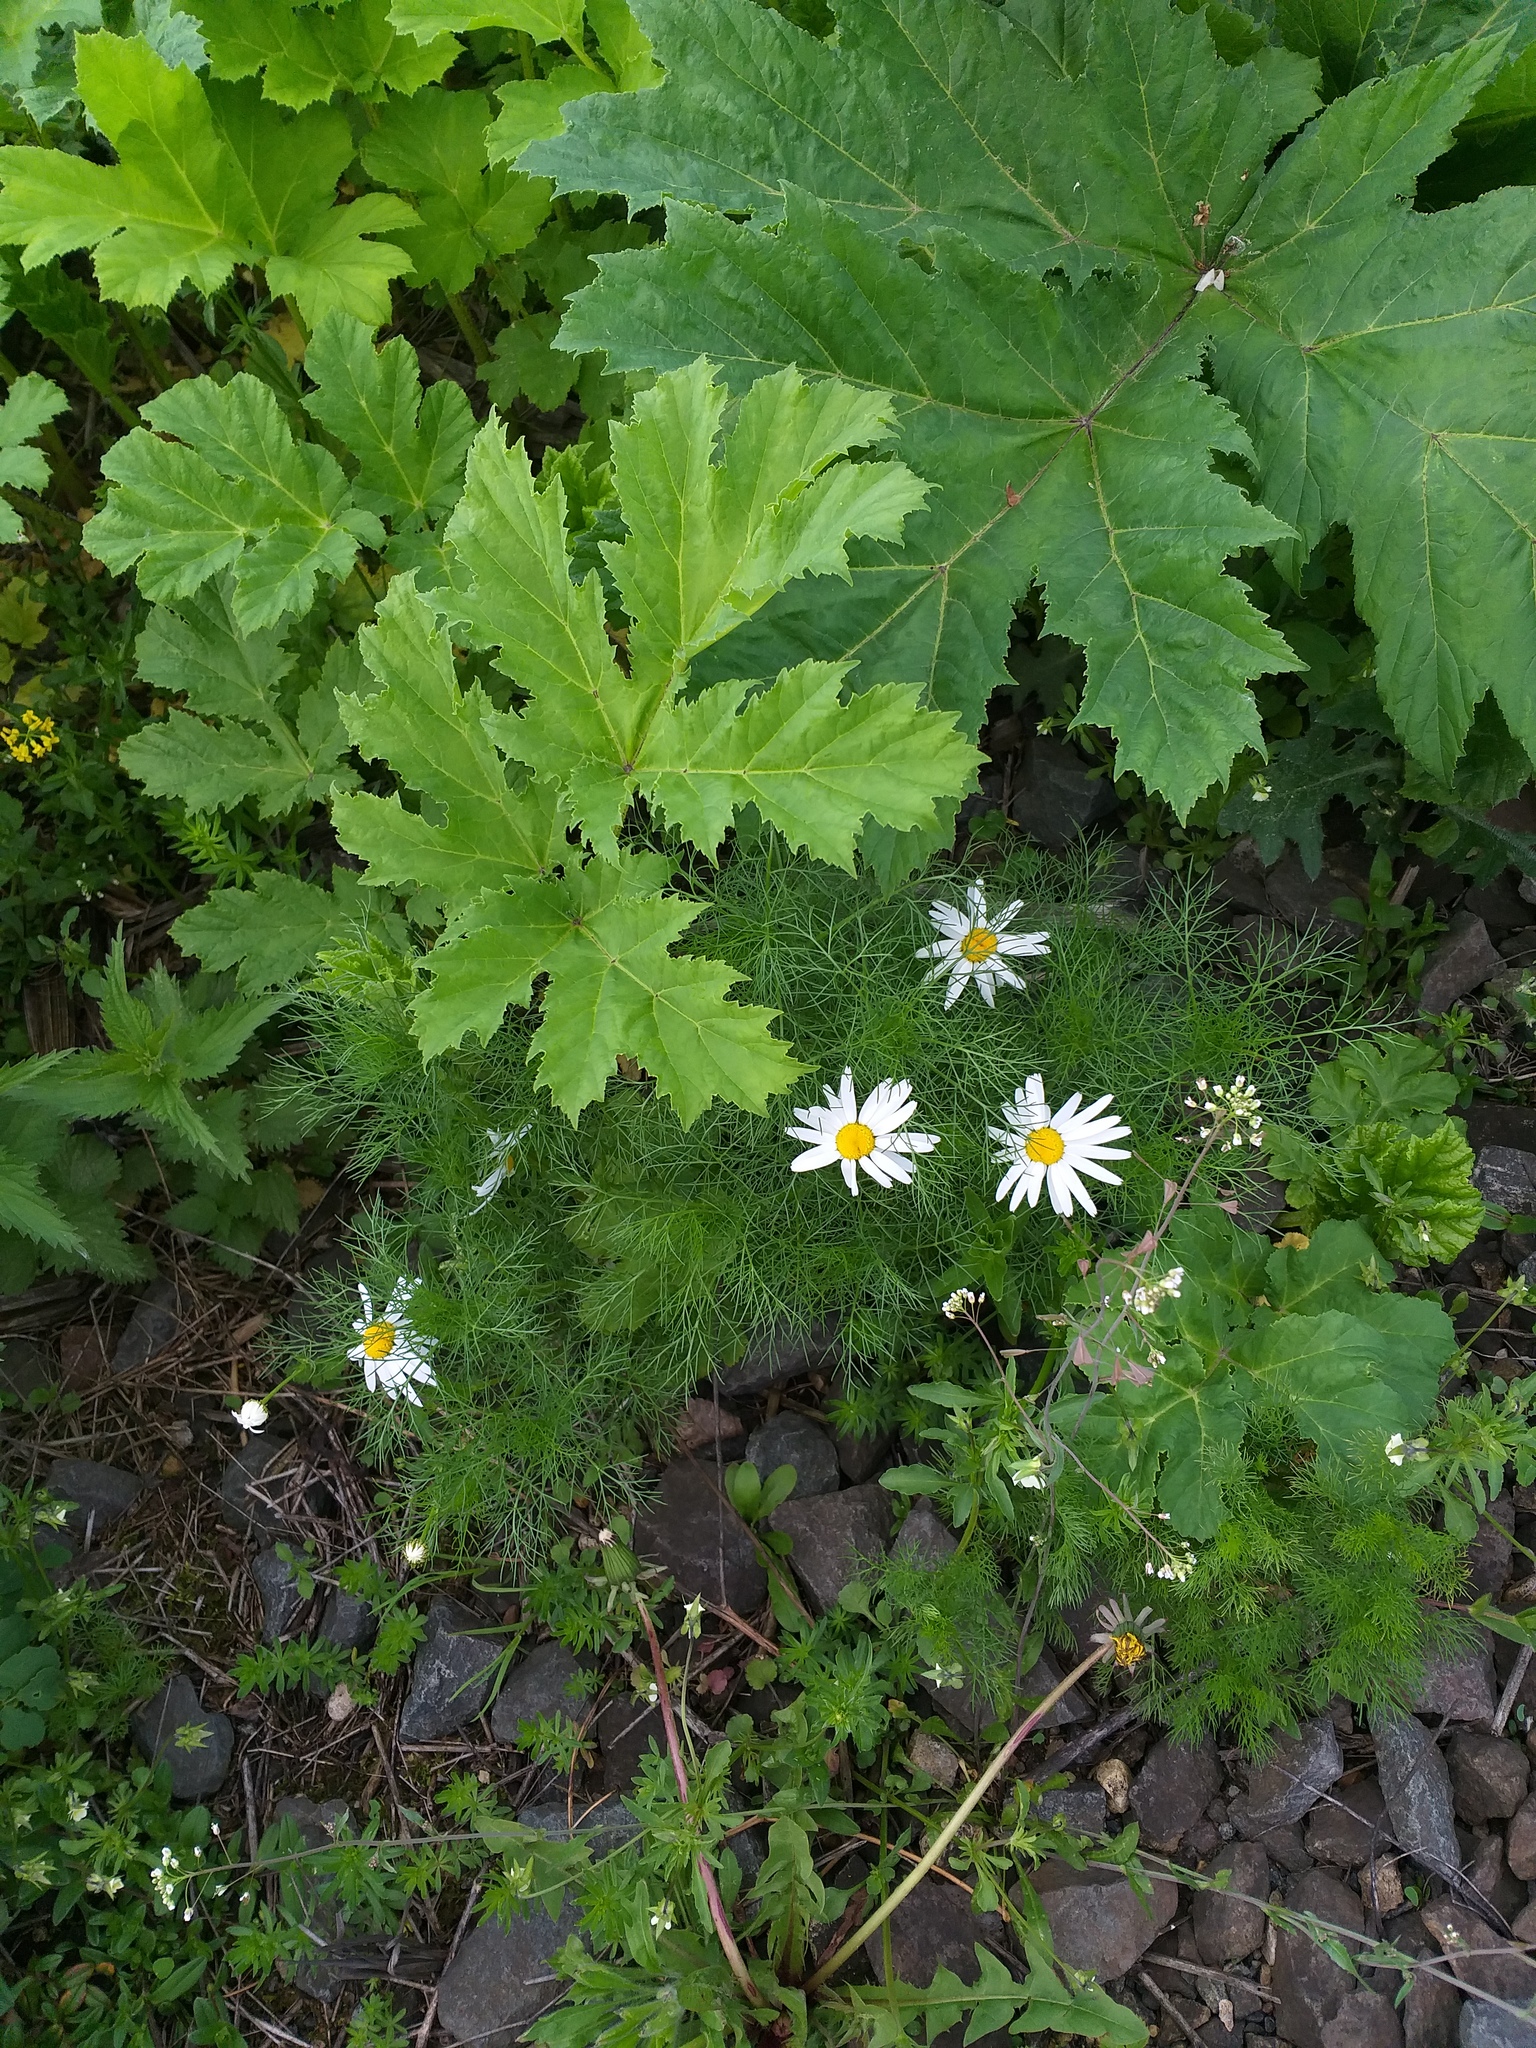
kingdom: Plantae
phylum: Tracheophyta
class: Magnoliopsida
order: Asterales
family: Asteraceae
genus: Tripleurospermum
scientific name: Tripleurospermum inodorum
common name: Scentless mayweed
